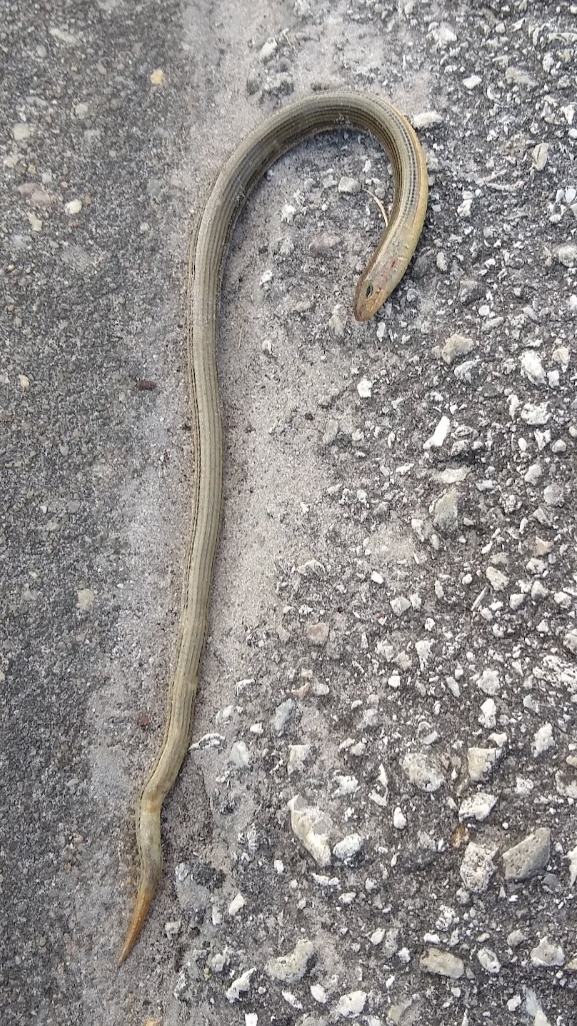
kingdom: Animalia
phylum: Chordata
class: Squamata
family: Anguidae
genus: Ophisaurus
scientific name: Ophisaurus ventralis
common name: Eastern glass lizard
